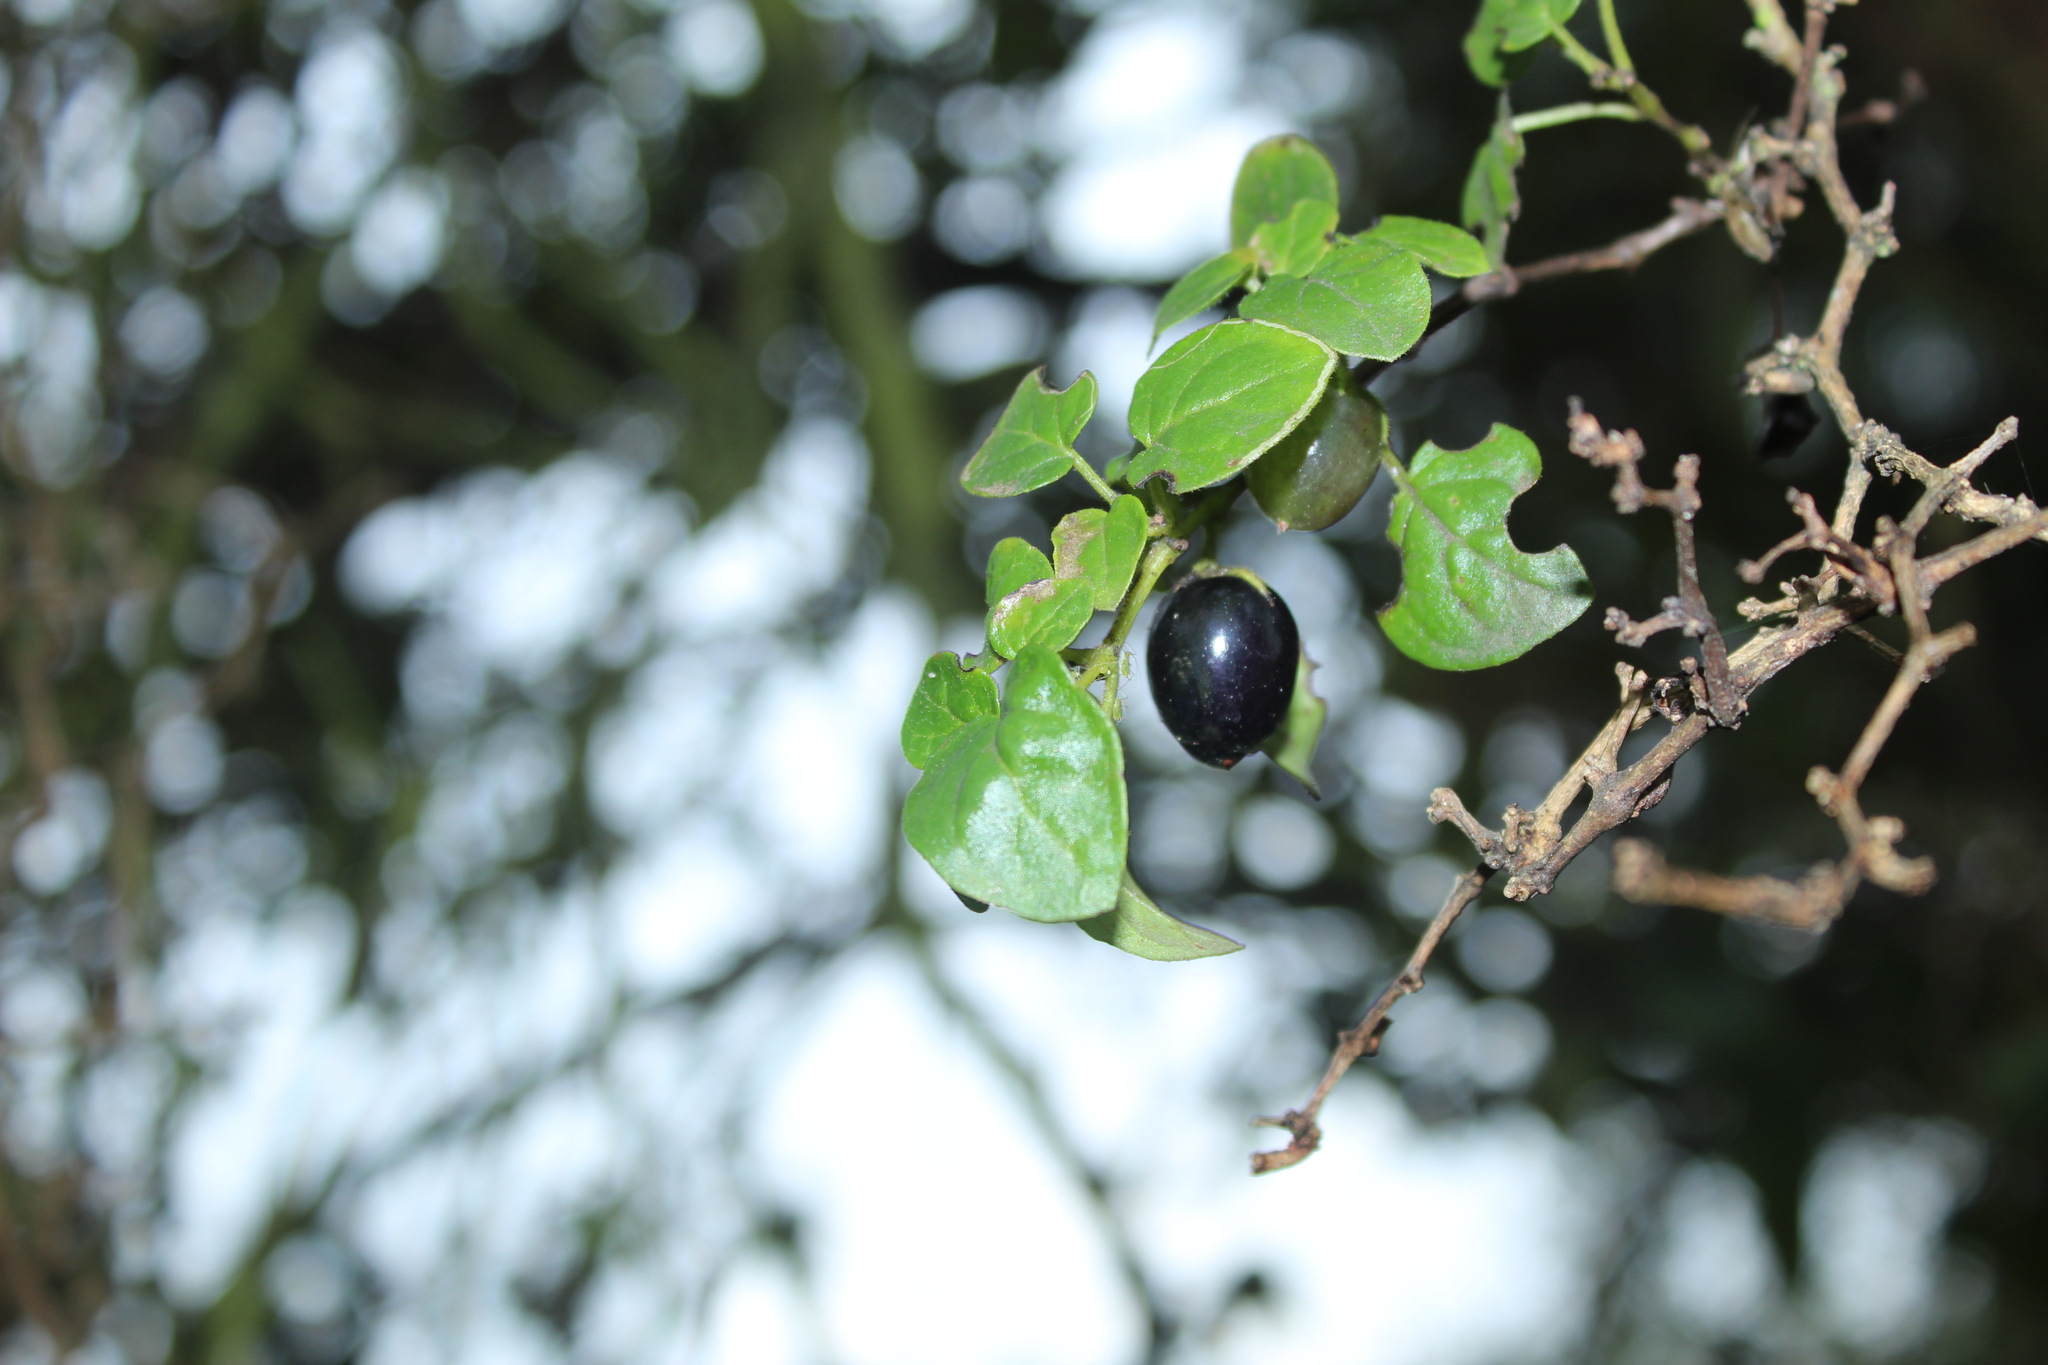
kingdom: Plantae
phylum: Tracheophyta
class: Magnoliopsida
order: Solanales
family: Solanaceae
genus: Salpichroa
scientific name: Salpichroa tristis
